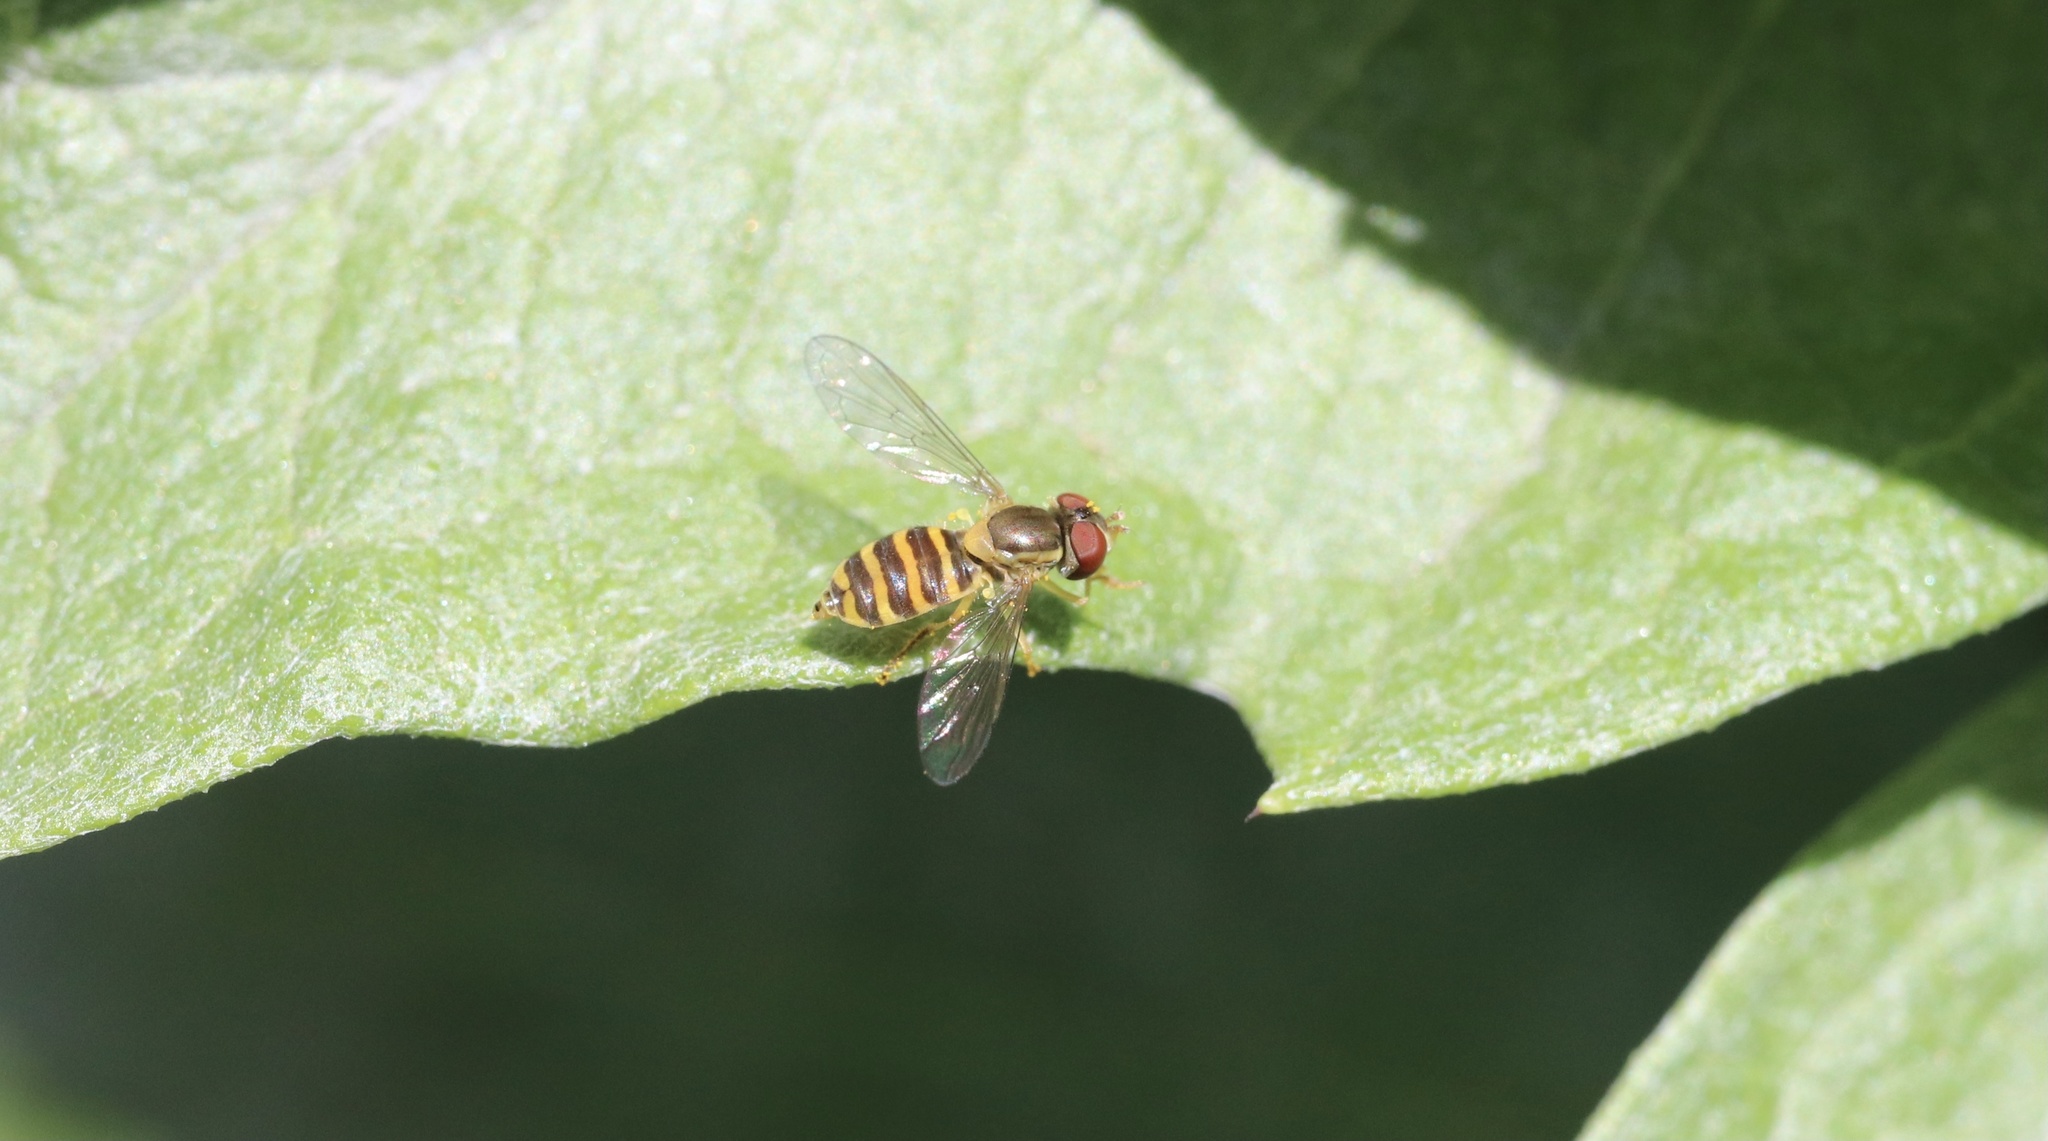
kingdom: Animalia
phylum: Arthropoda
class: Insecta
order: Diptera
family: Syrphidae
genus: Toxomerus
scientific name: Toxomerus calceolatus
